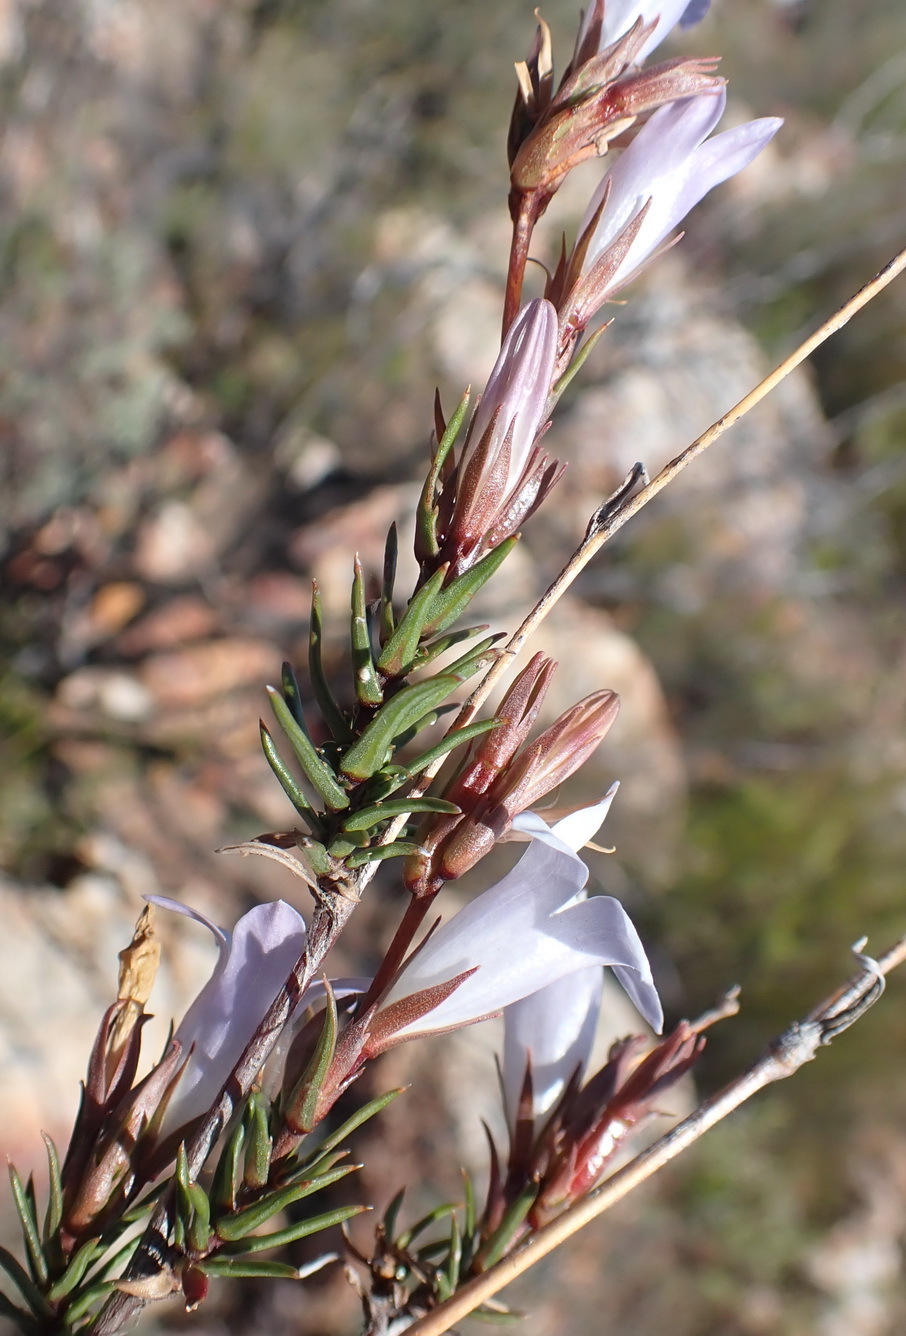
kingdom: Plantae
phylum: Tracheophyta
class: Magnoliopsida
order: Asterales
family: Campanulaceae
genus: Prismatocarpus
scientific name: Prismatocarpus candolleanus
